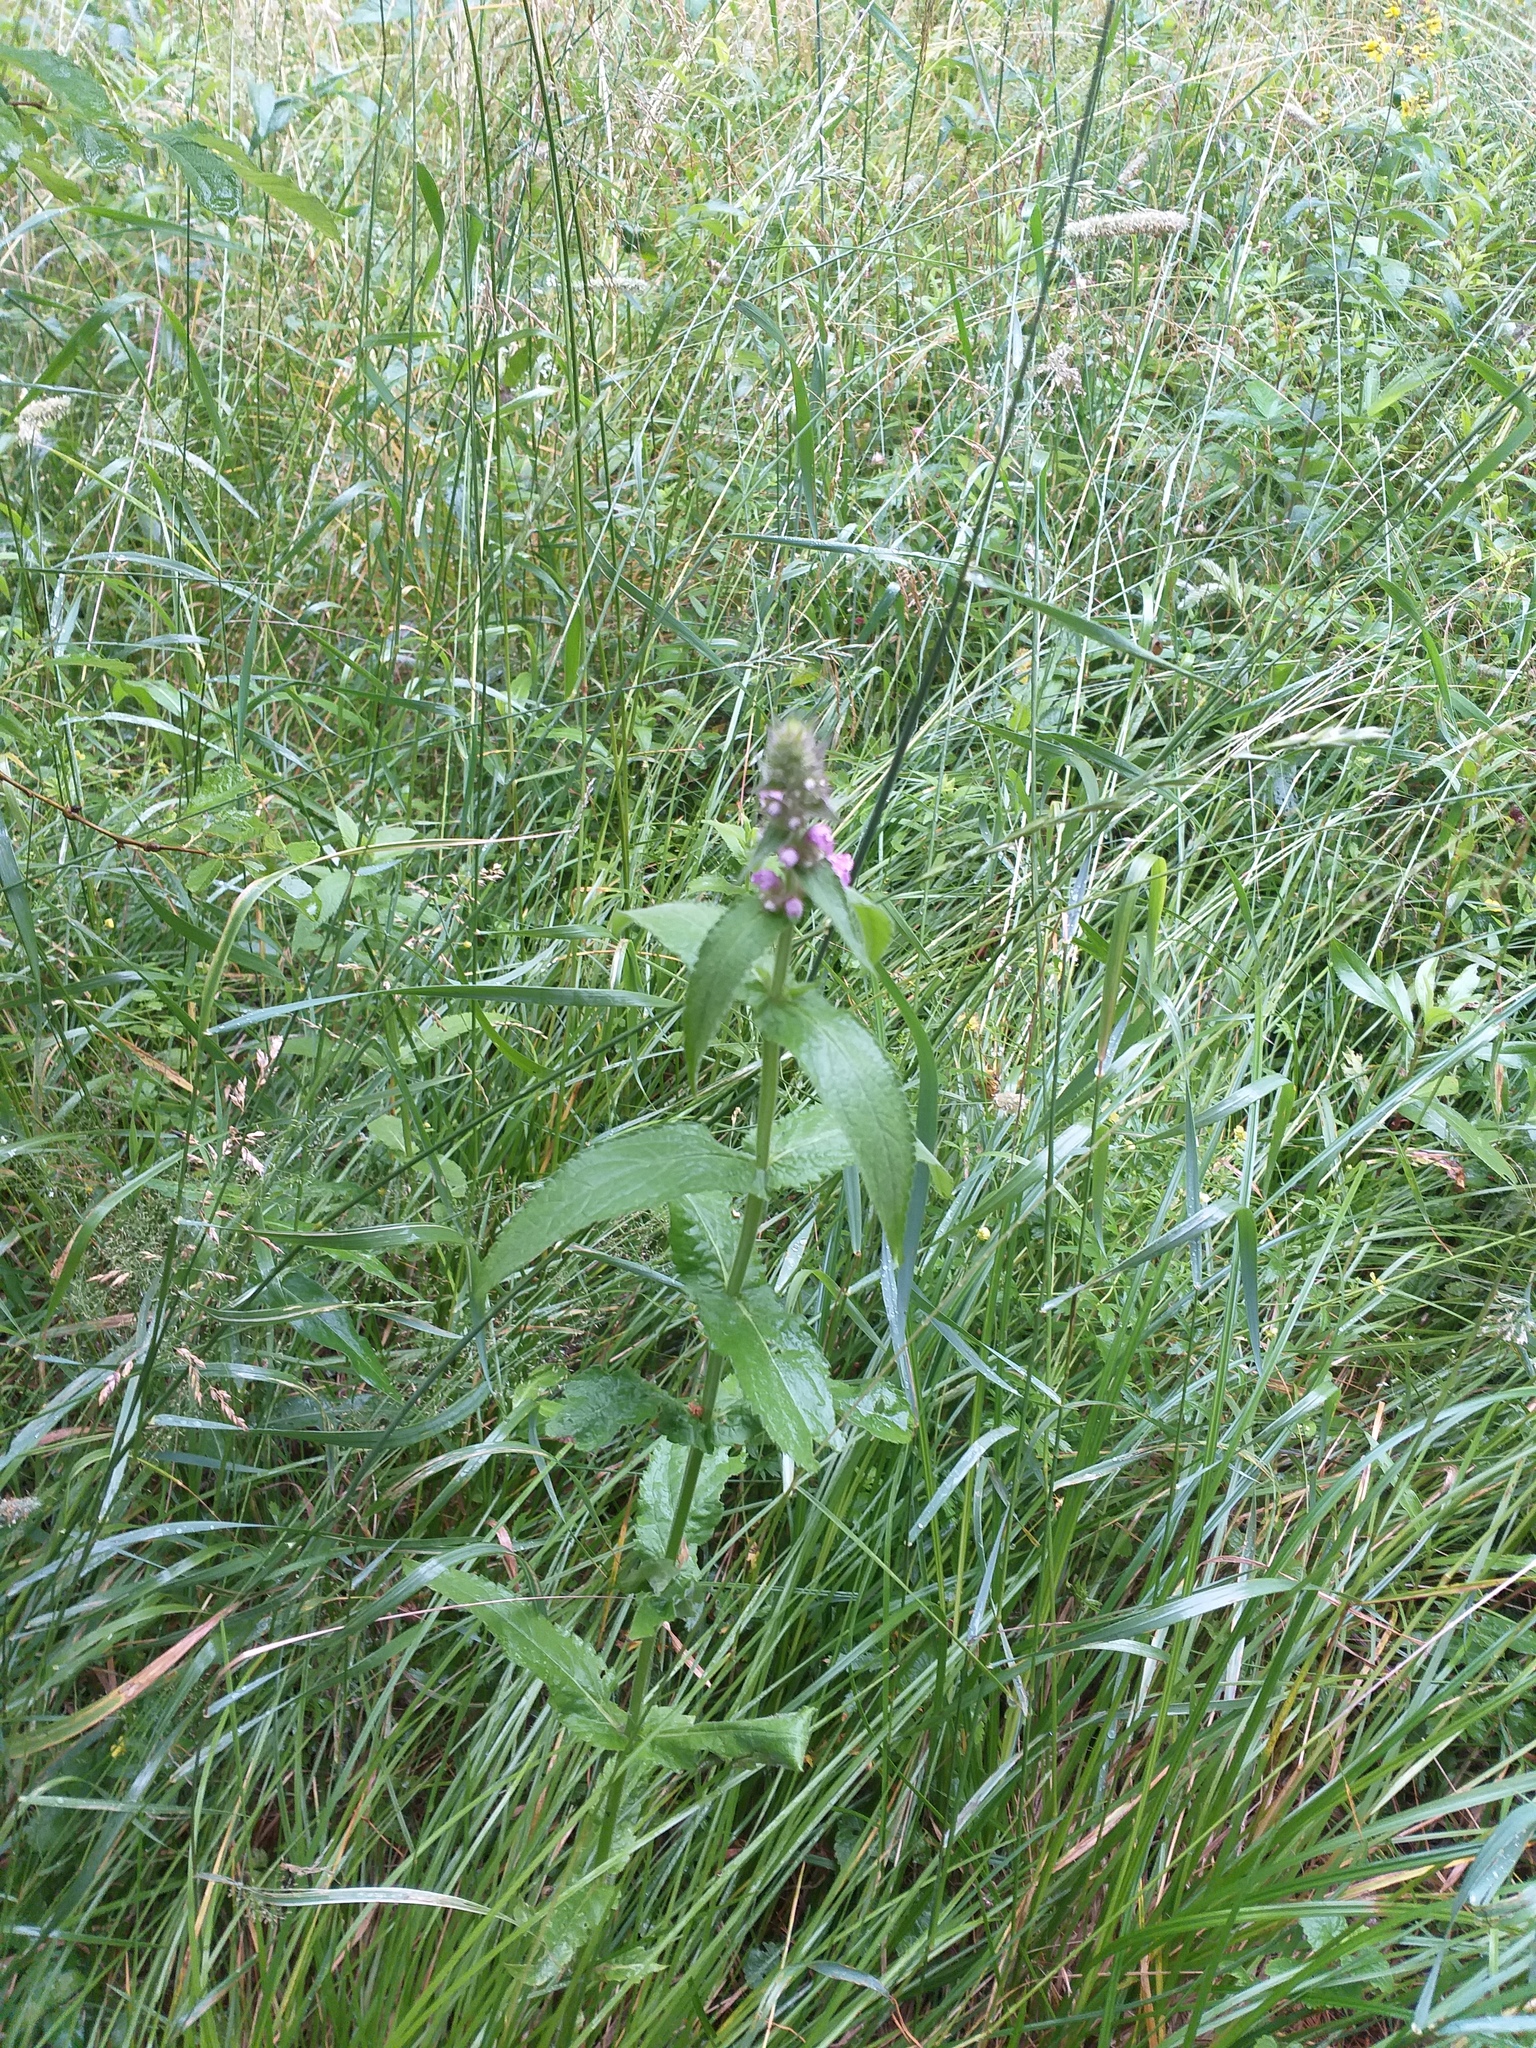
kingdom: Plantae
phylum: Tracheophyta
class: Magnoliopsida
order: Lamiales
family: Lamiaceae
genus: Stachys
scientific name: Stachys palustris
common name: Marsh woundwort
